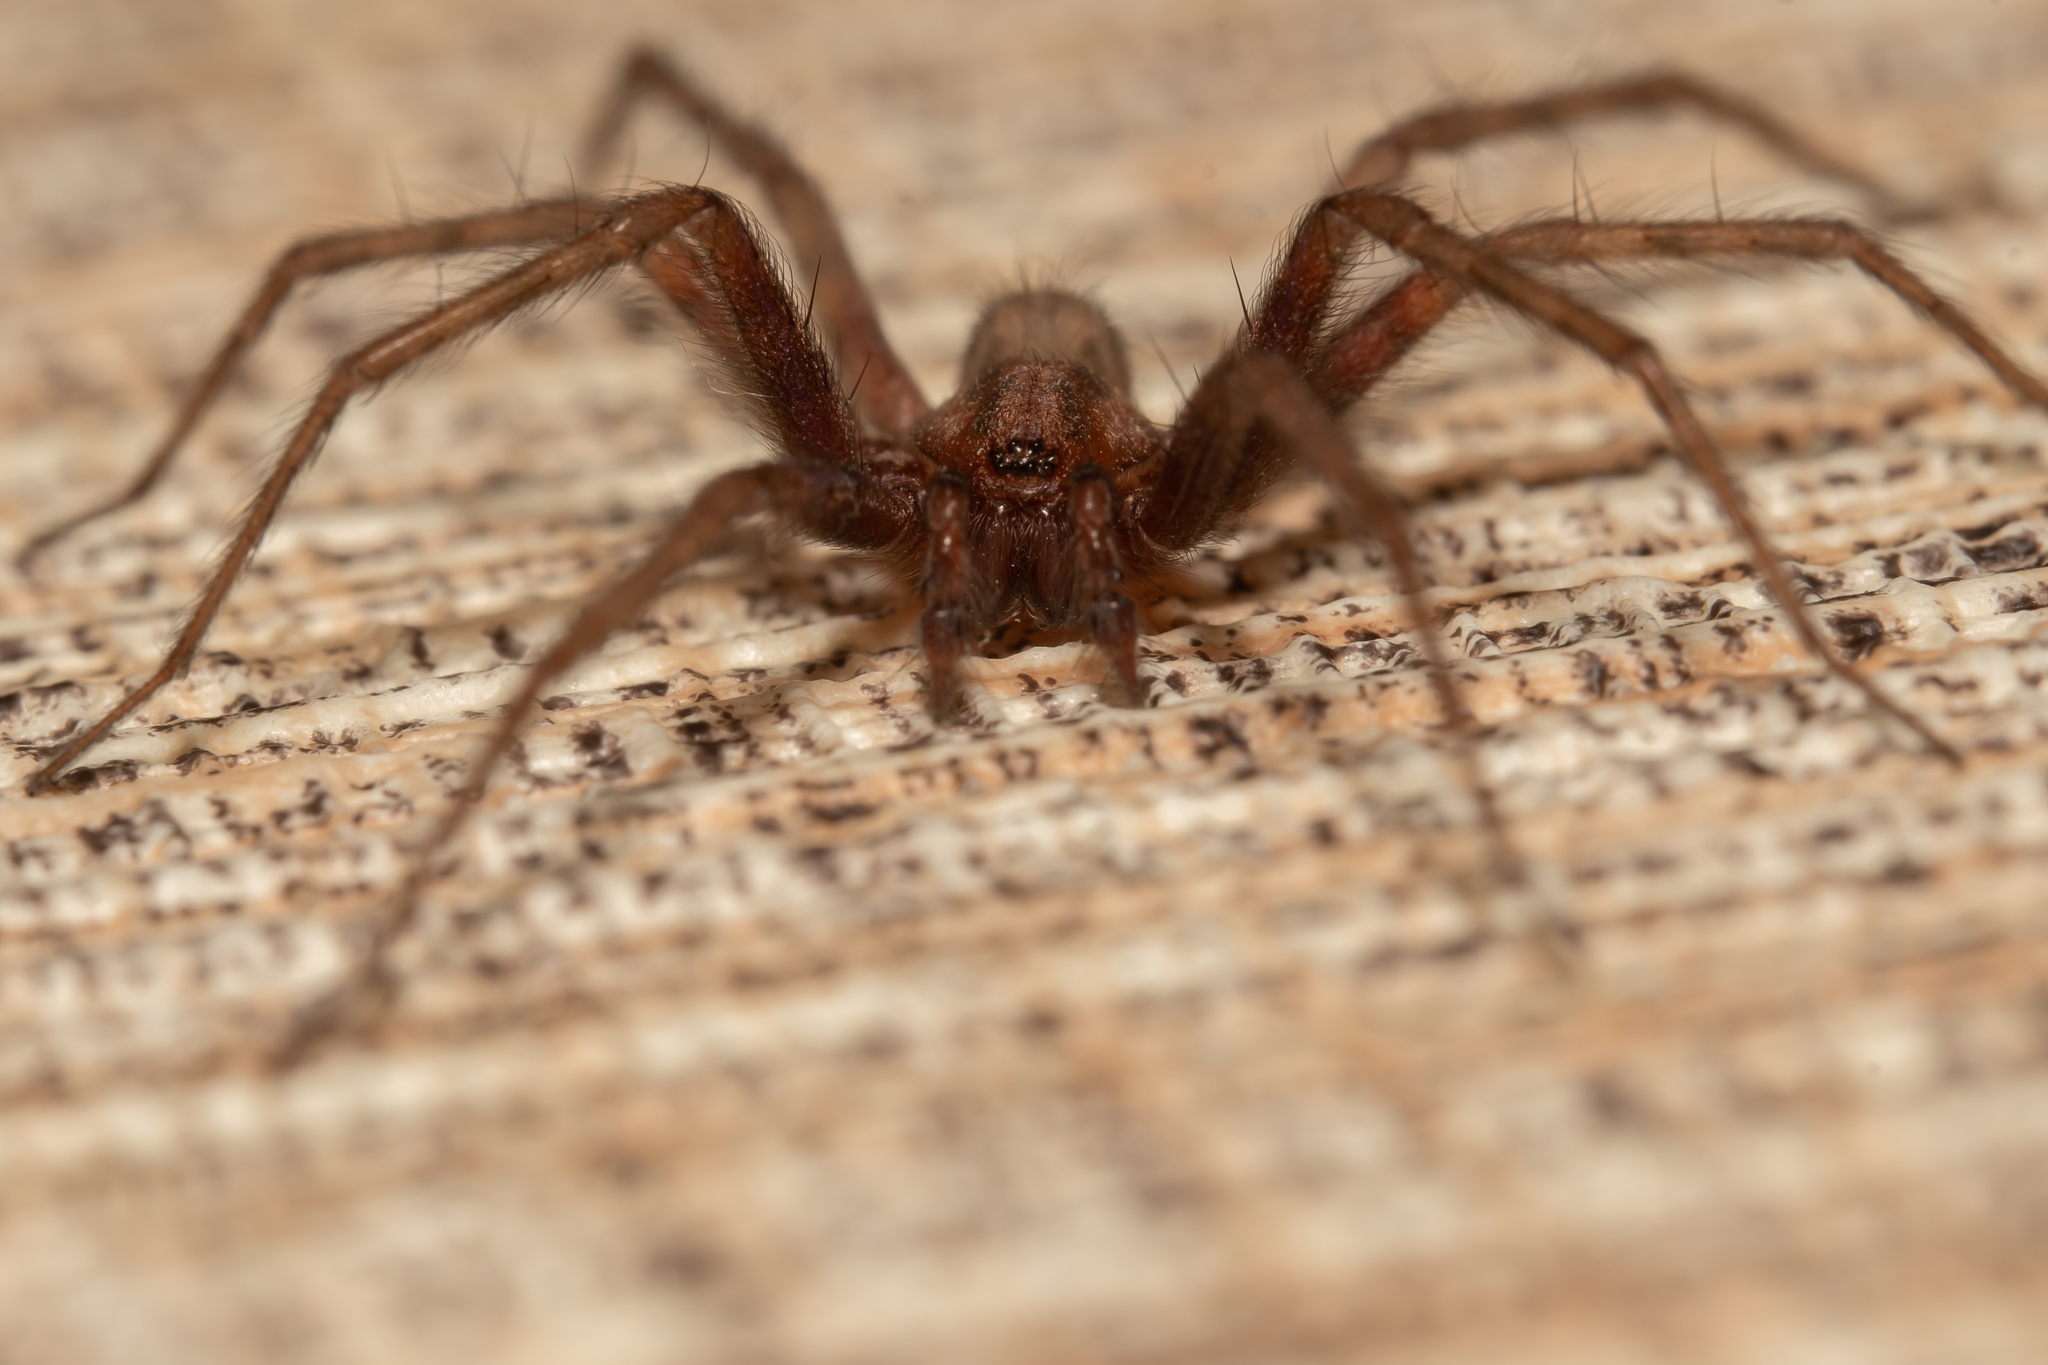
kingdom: Animalia
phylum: Arthropoda
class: Arachnida
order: Araneae
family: Agelenidae
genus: Tegenaria
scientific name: Tegenaria domestica
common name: Barn funnel weaver
